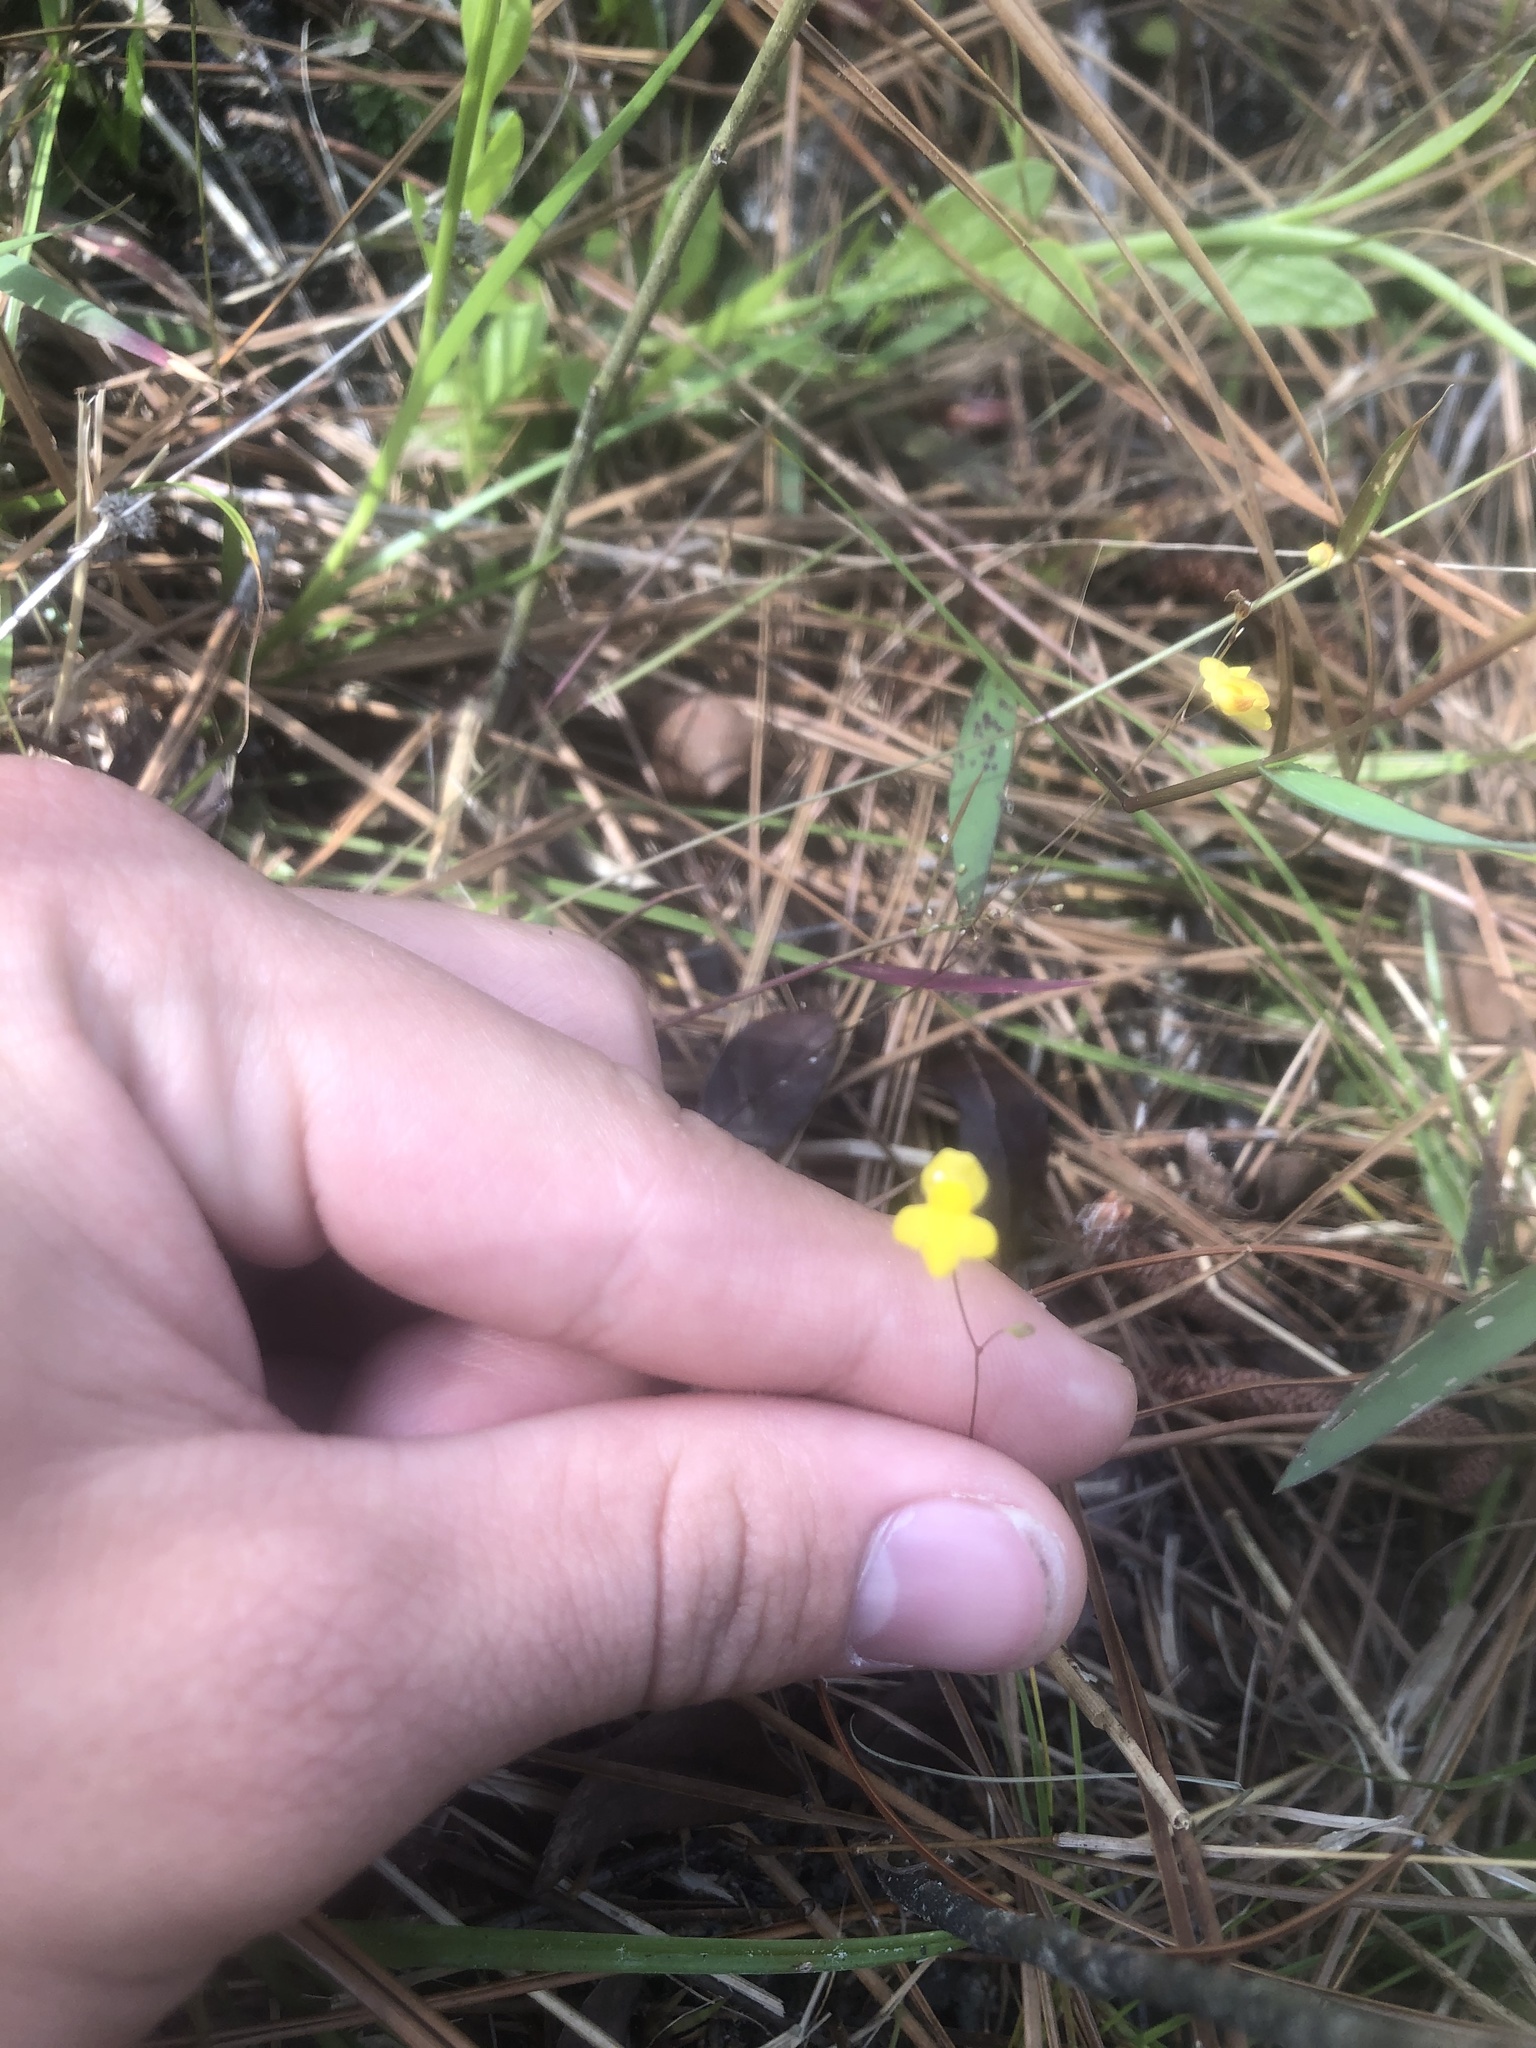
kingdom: Plantae
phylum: Tracheophyta
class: Magnoliopsida
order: Lamiales
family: Lentibulariaceae
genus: Utricularia
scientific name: Utricularia subulata
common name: Tiny bladderwort
